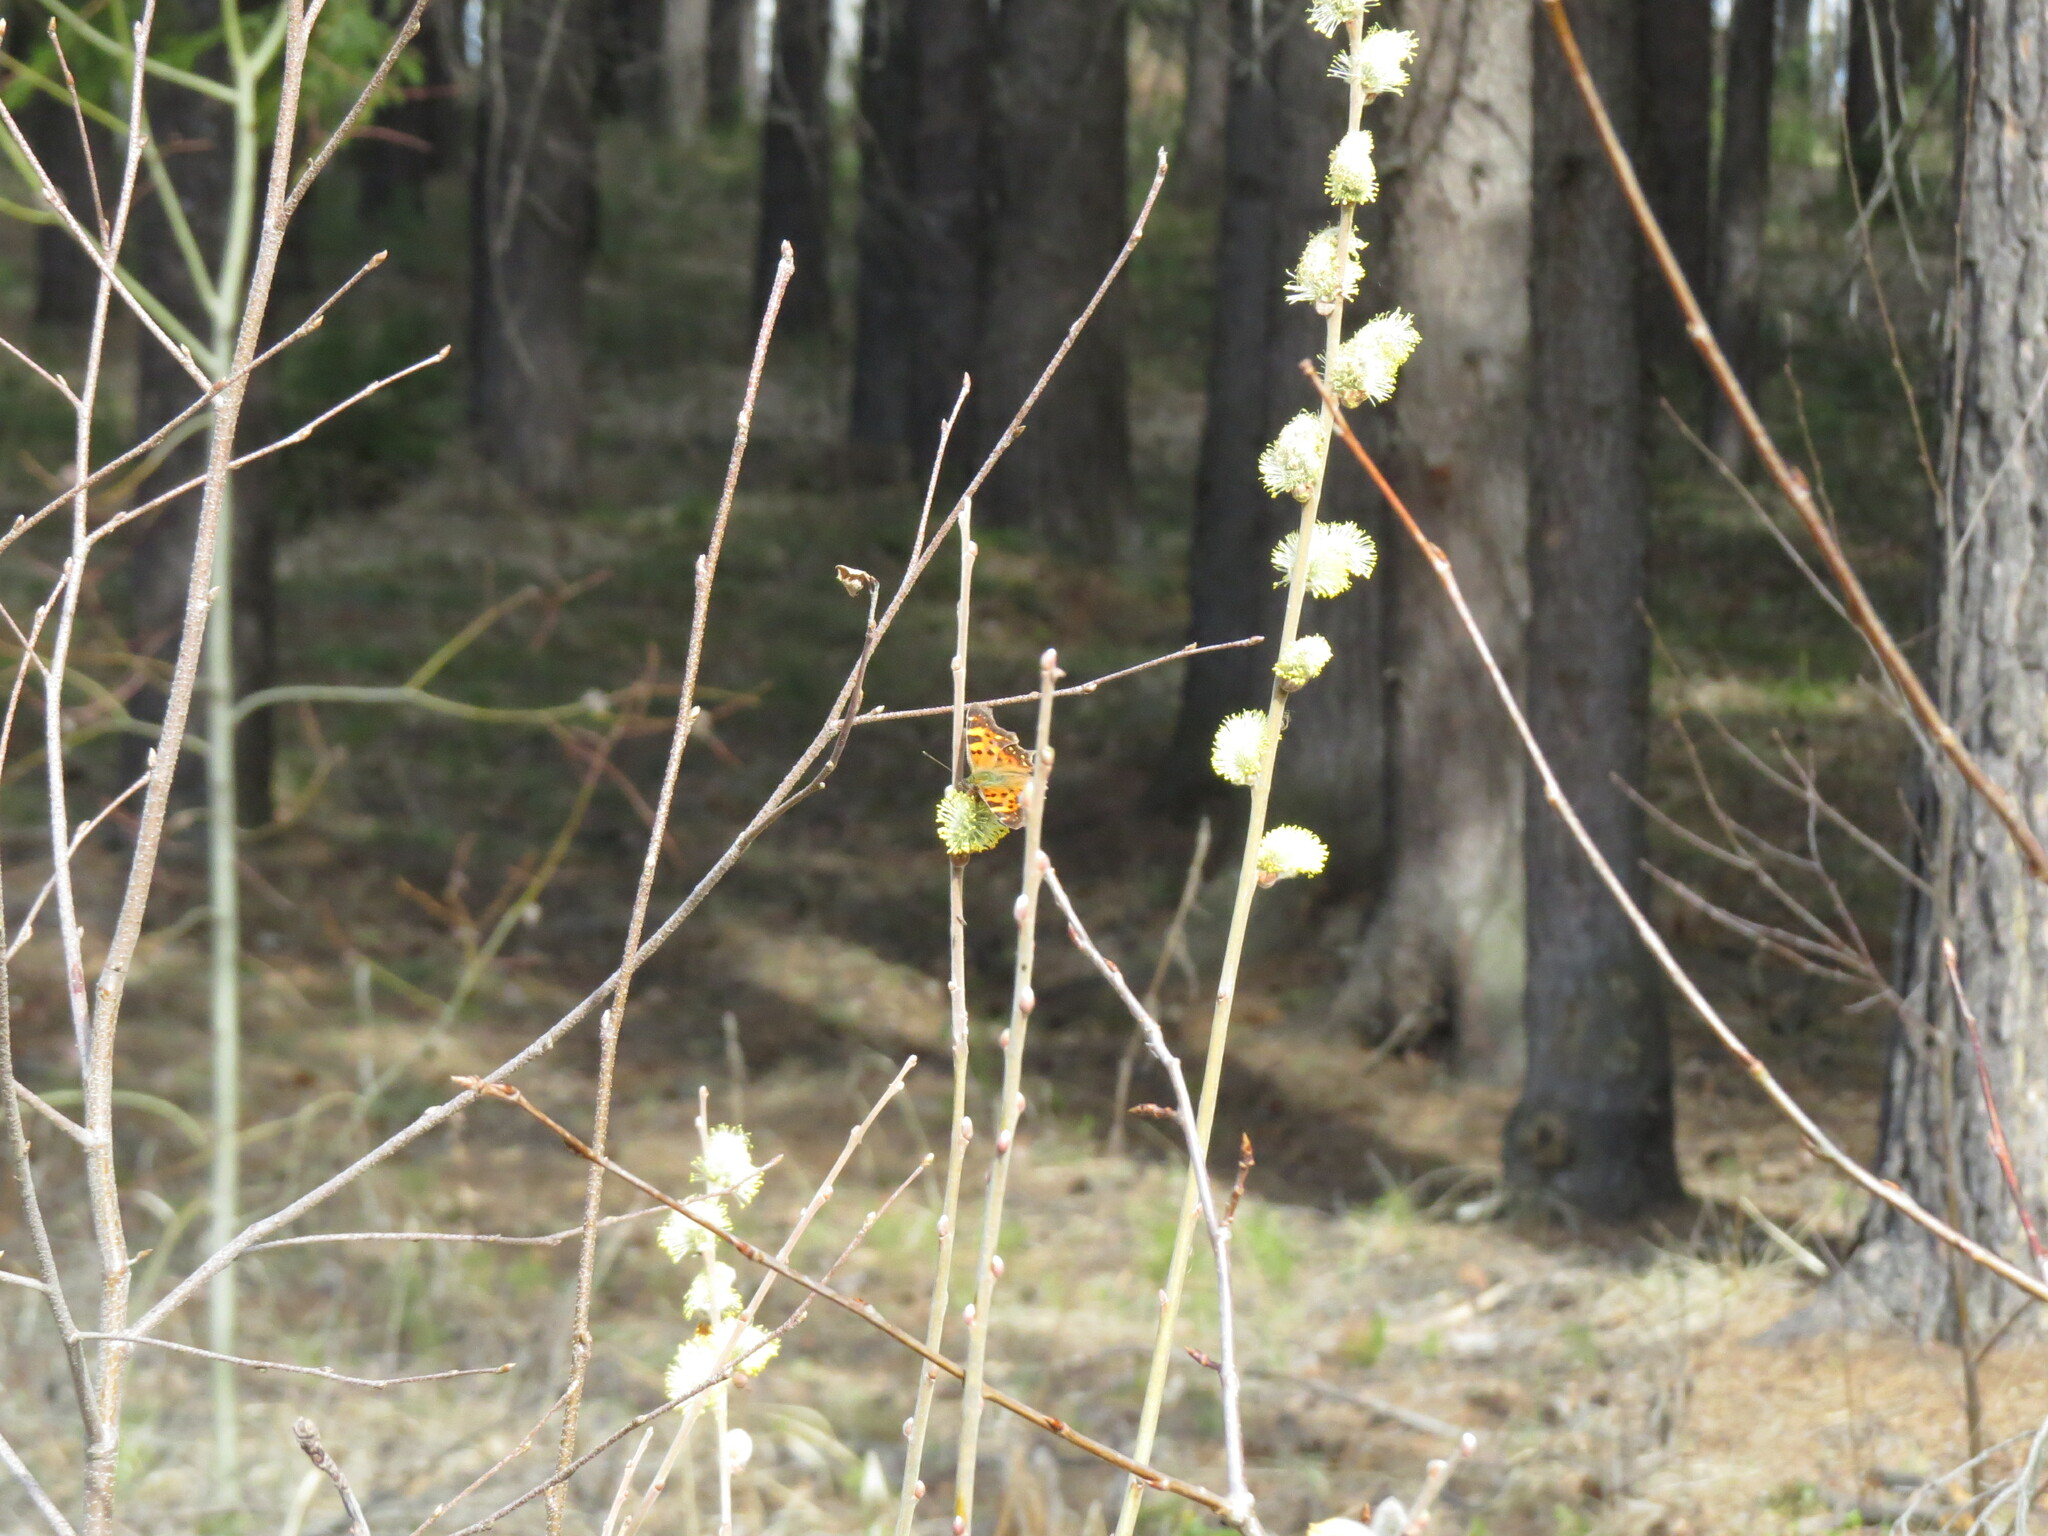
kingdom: Animalia
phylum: Arthropoda
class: Insecta
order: Lepidoptera
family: Nymphalidae
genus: Polygonia
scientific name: Polygonia c-album
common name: Comma
